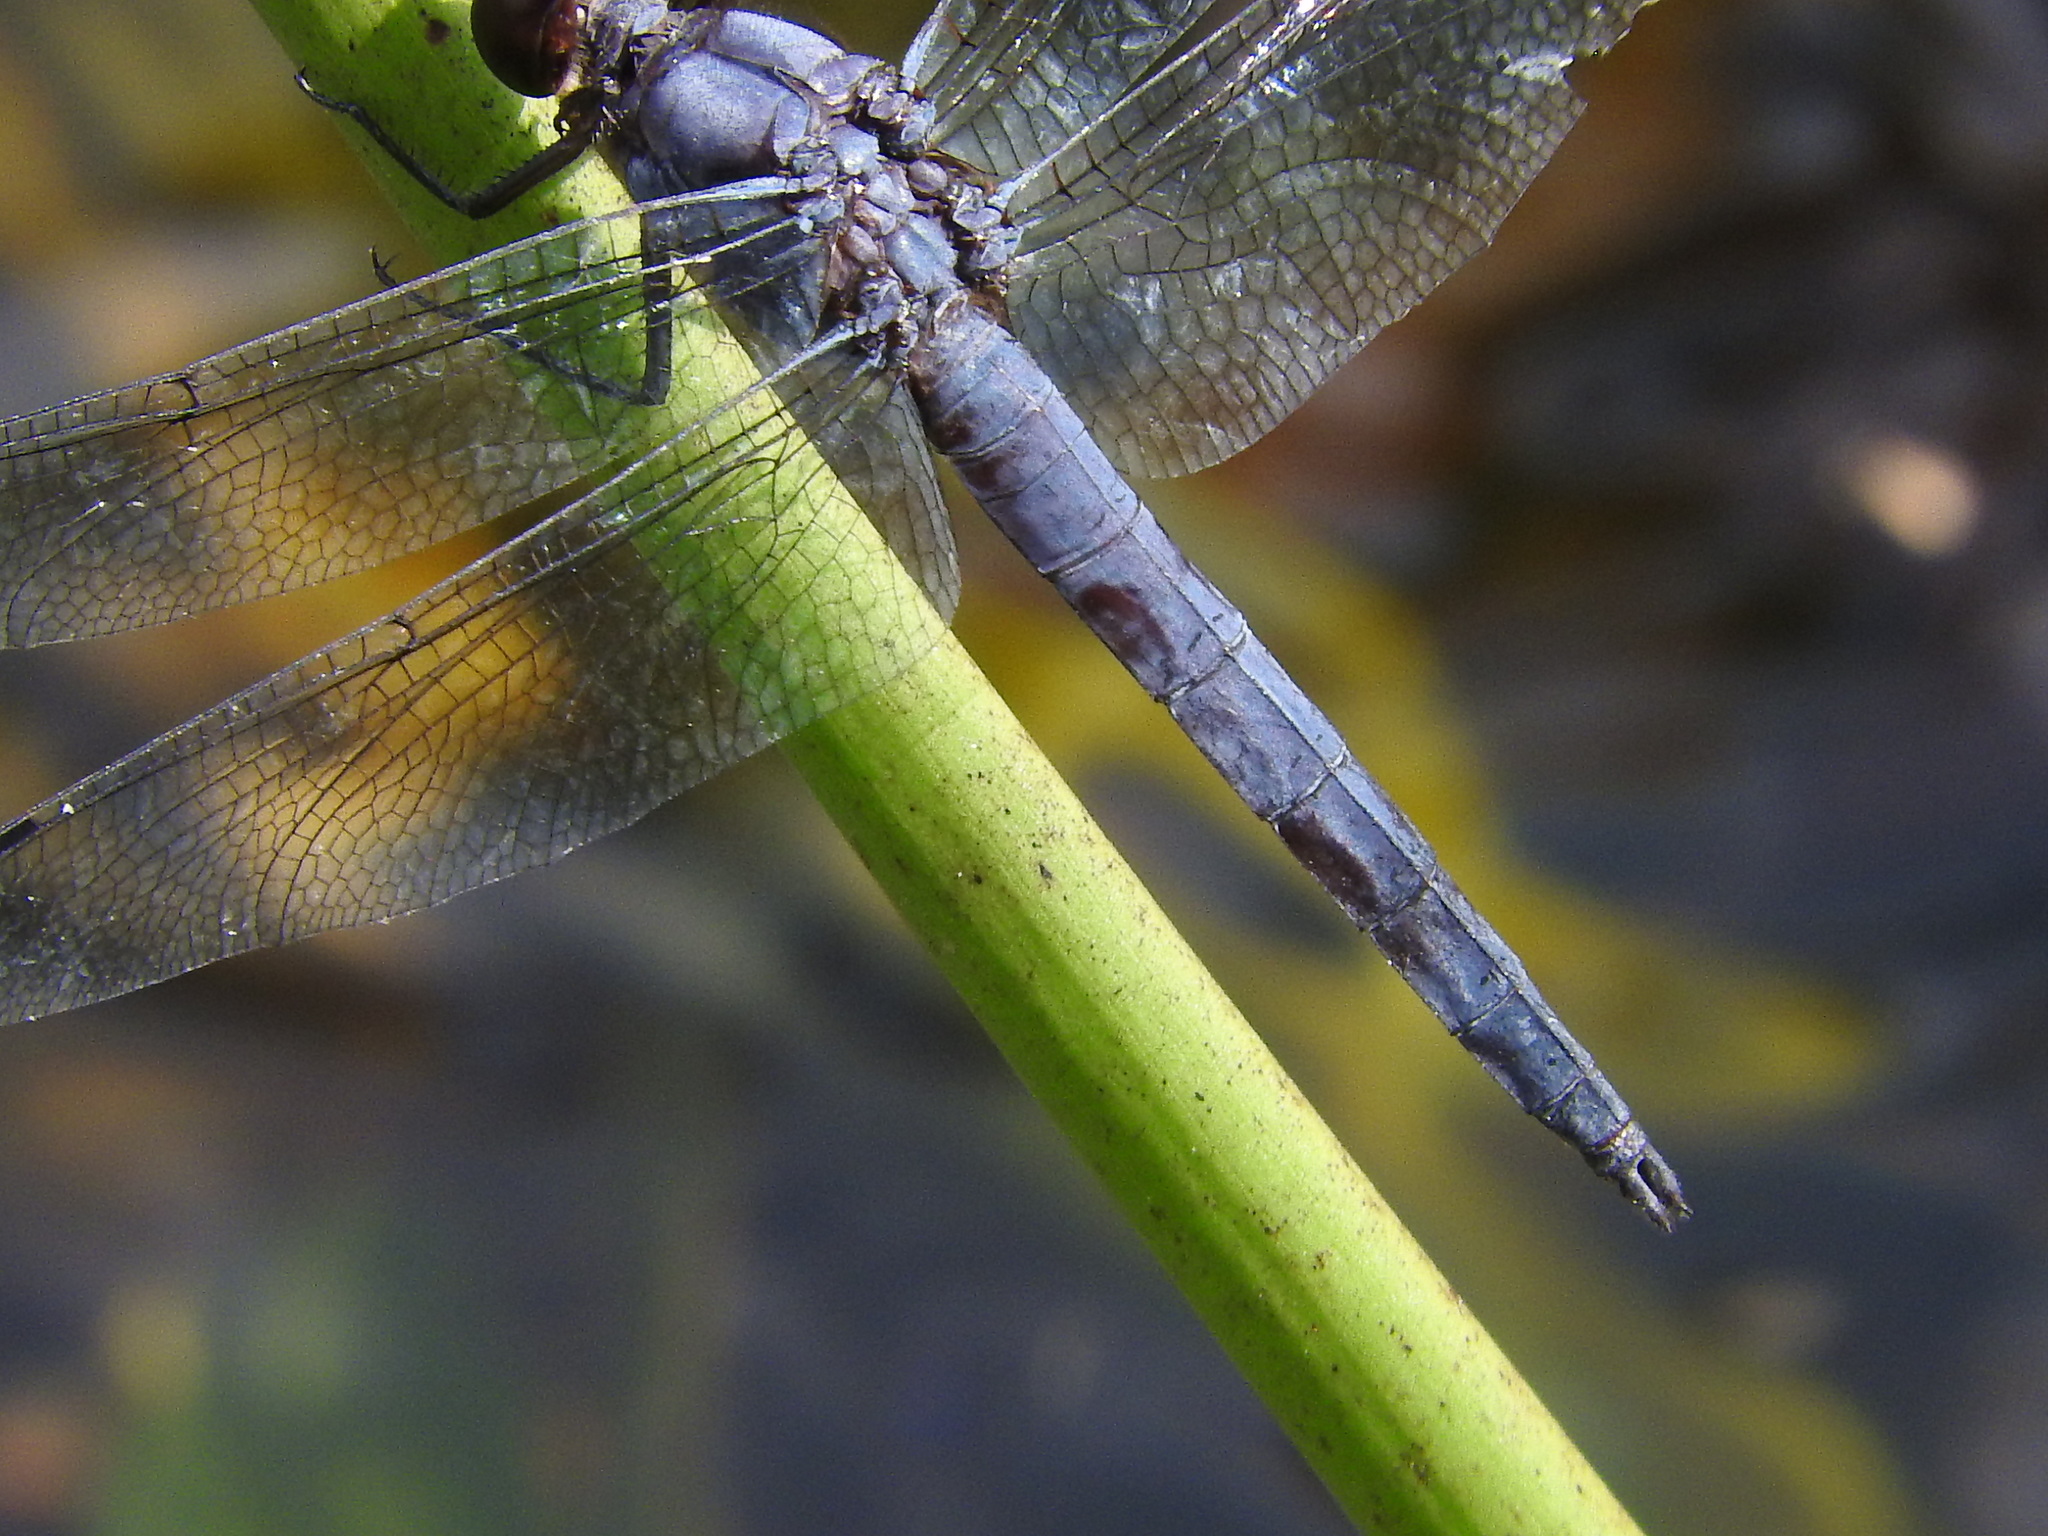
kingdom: Animalia
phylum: Arthropoda
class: Insecta
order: Odonata
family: Libellulidae
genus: Libellula
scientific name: Libellula incesta
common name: Slaty skimmer
